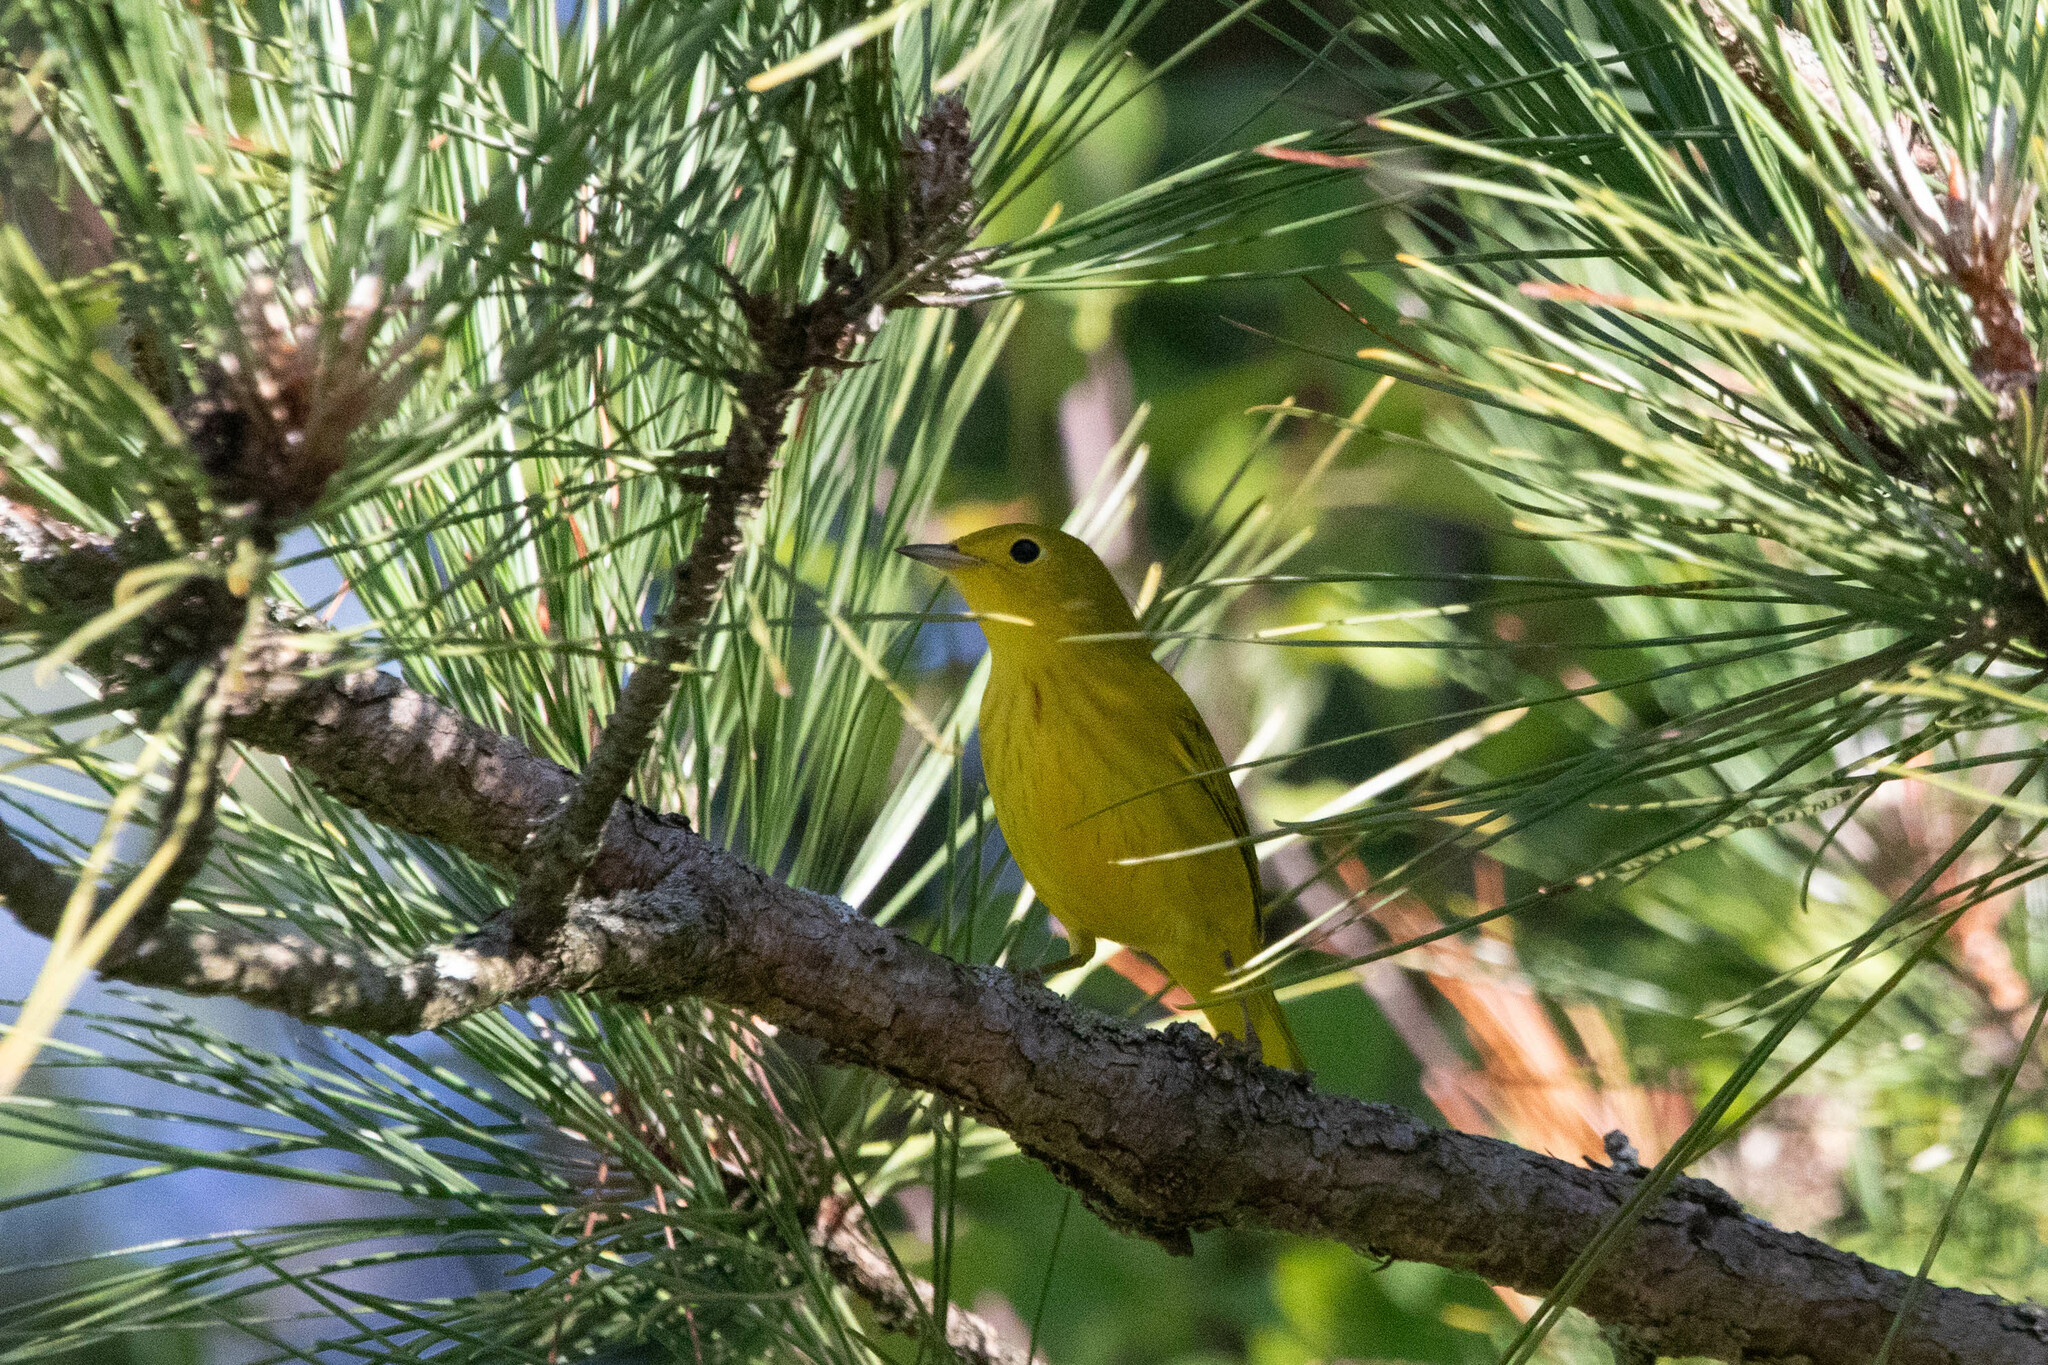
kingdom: Animalia
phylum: Chordata
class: Aves
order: Passeriformes
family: Parulidae
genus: Setophaga
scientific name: Setophaga petechia
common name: Yellow warbler
